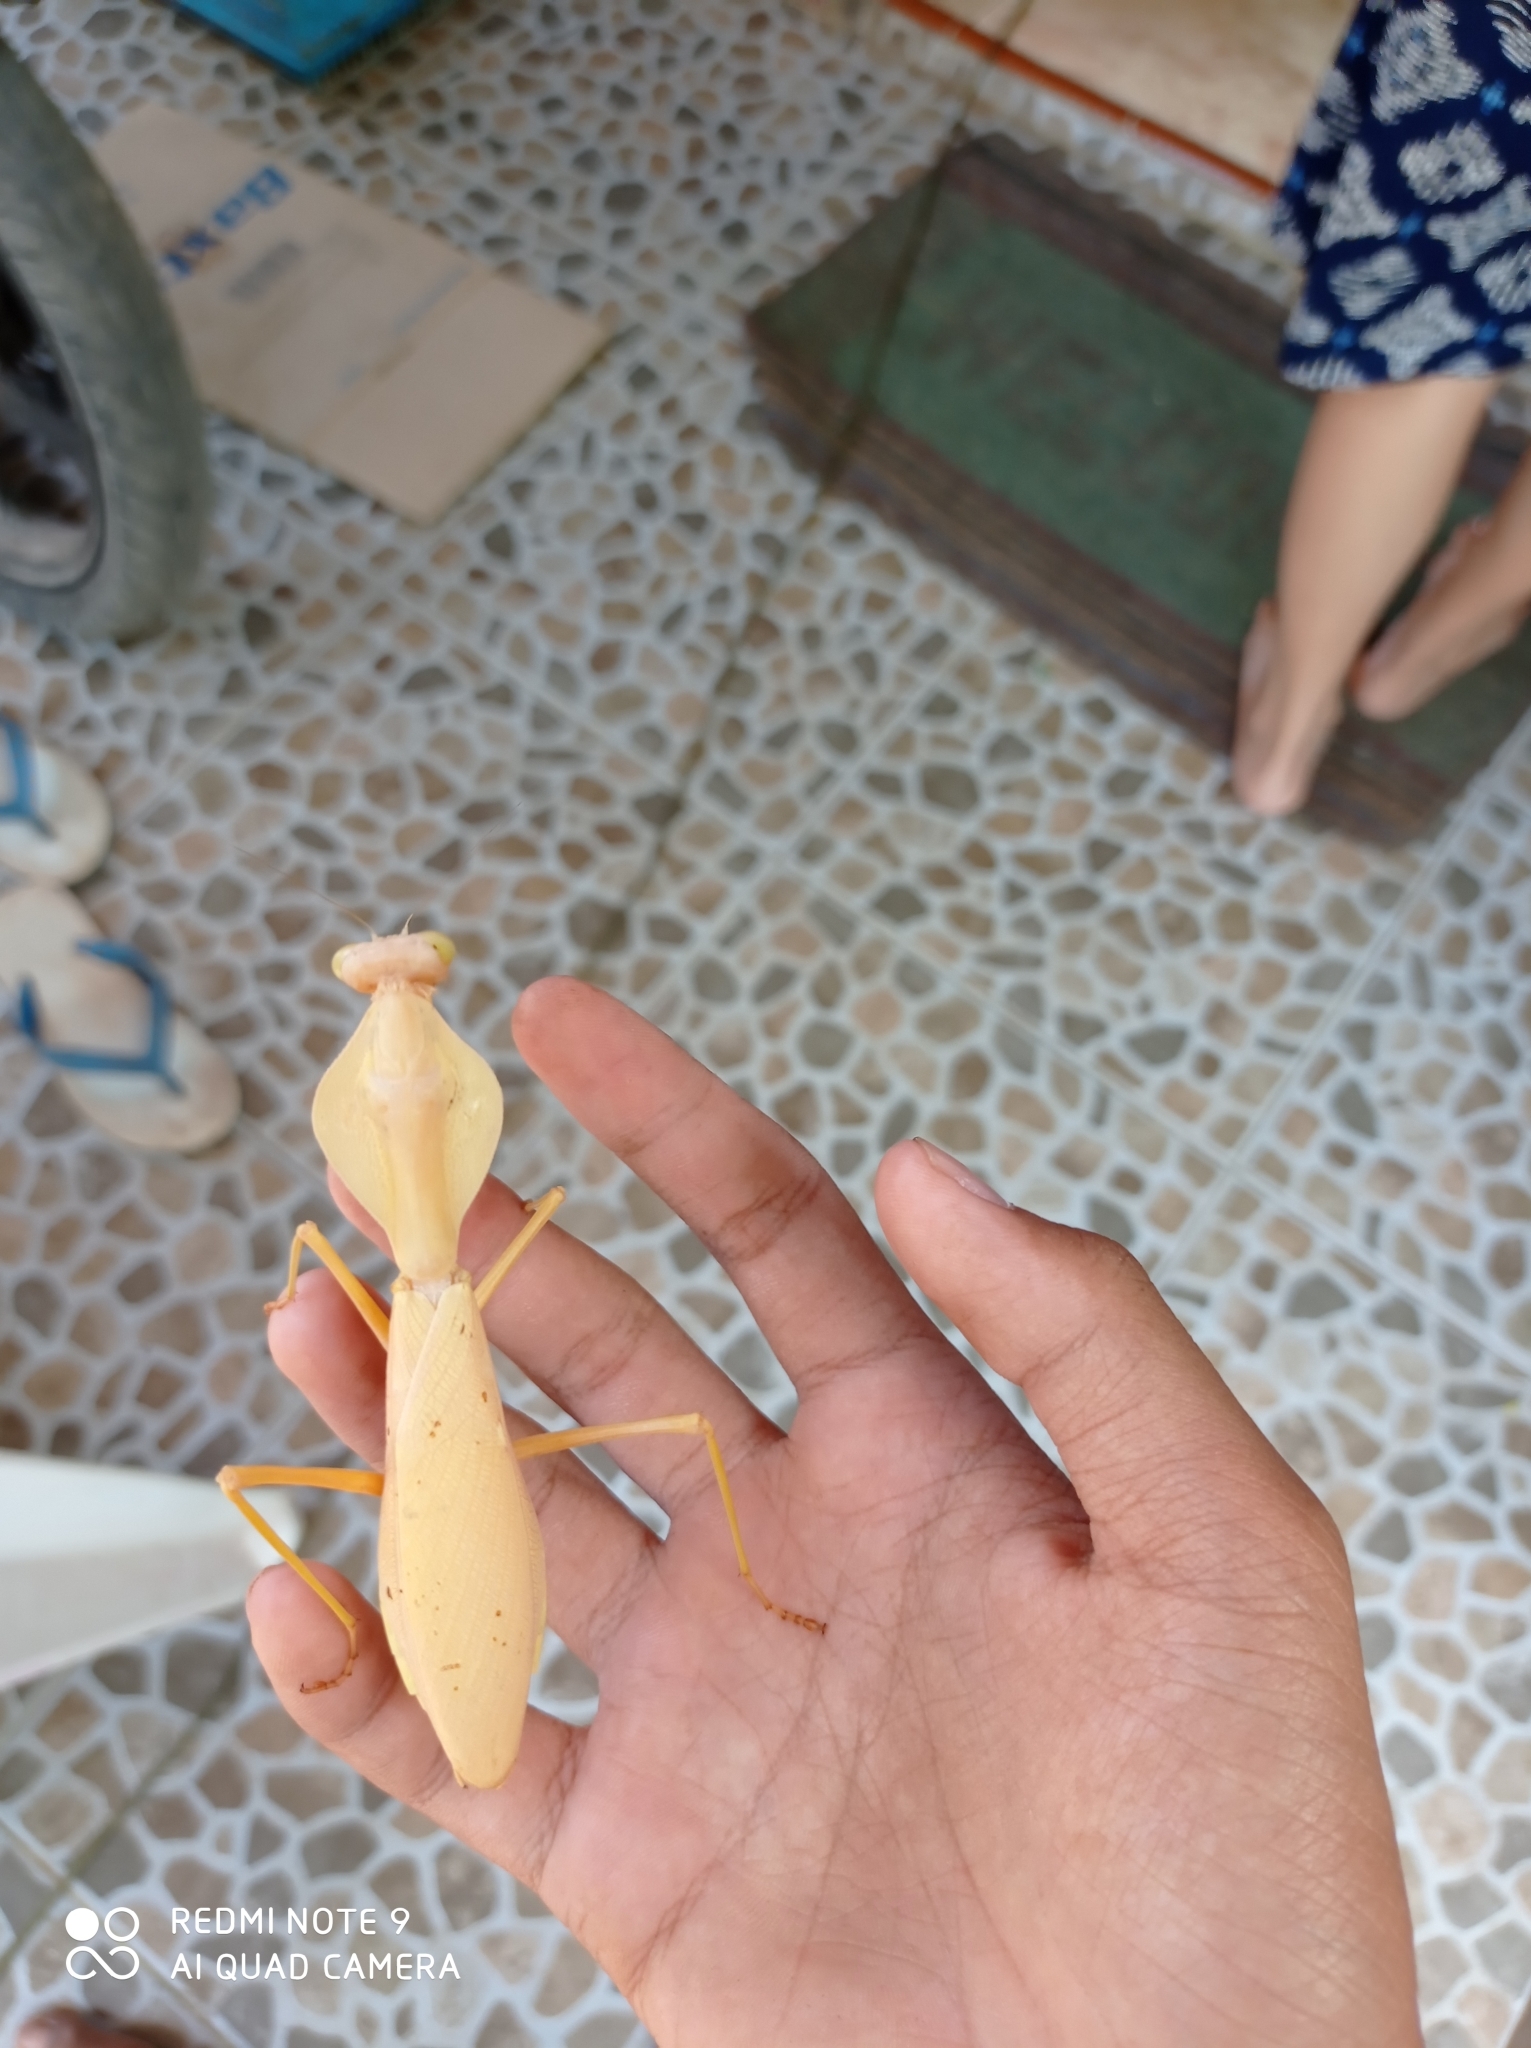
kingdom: Animalia
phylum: Arthropoda
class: Insecta
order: Mantodea
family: Mantidae
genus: Rhombodera
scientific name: Rhombodera kirbyi
